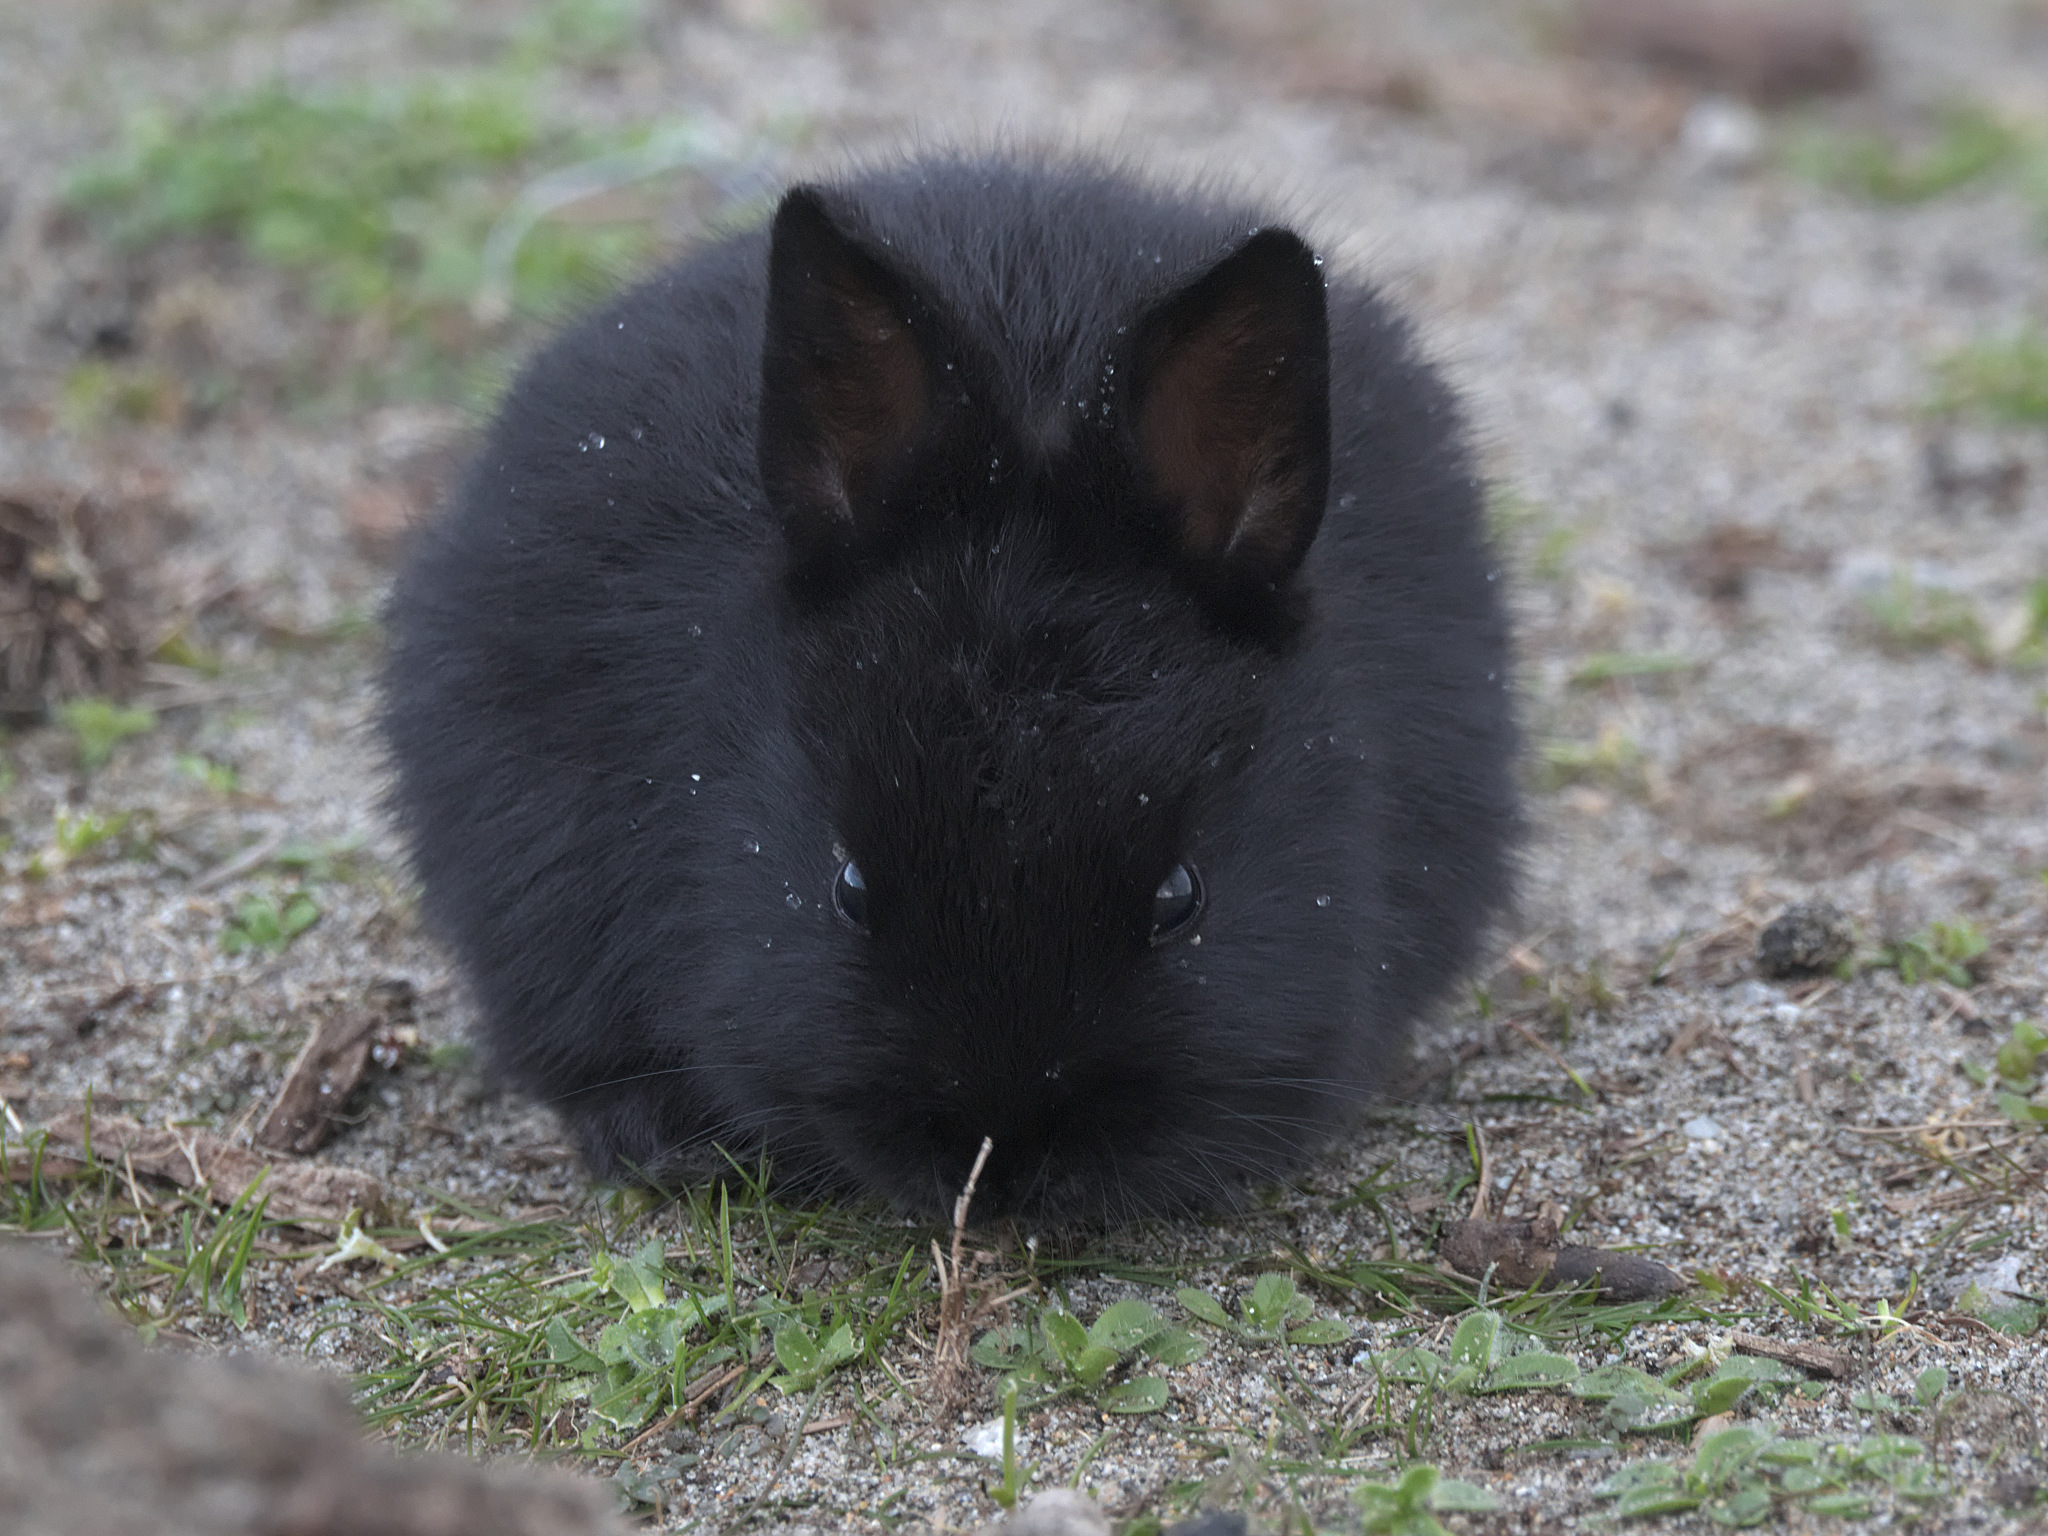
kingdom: Animalia
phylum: Chordata
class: Mammalia
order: Lagomorpha
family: Leporidae
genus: Oryctolagus
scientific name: Oryctolagus cuniculus
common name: European rabbit
